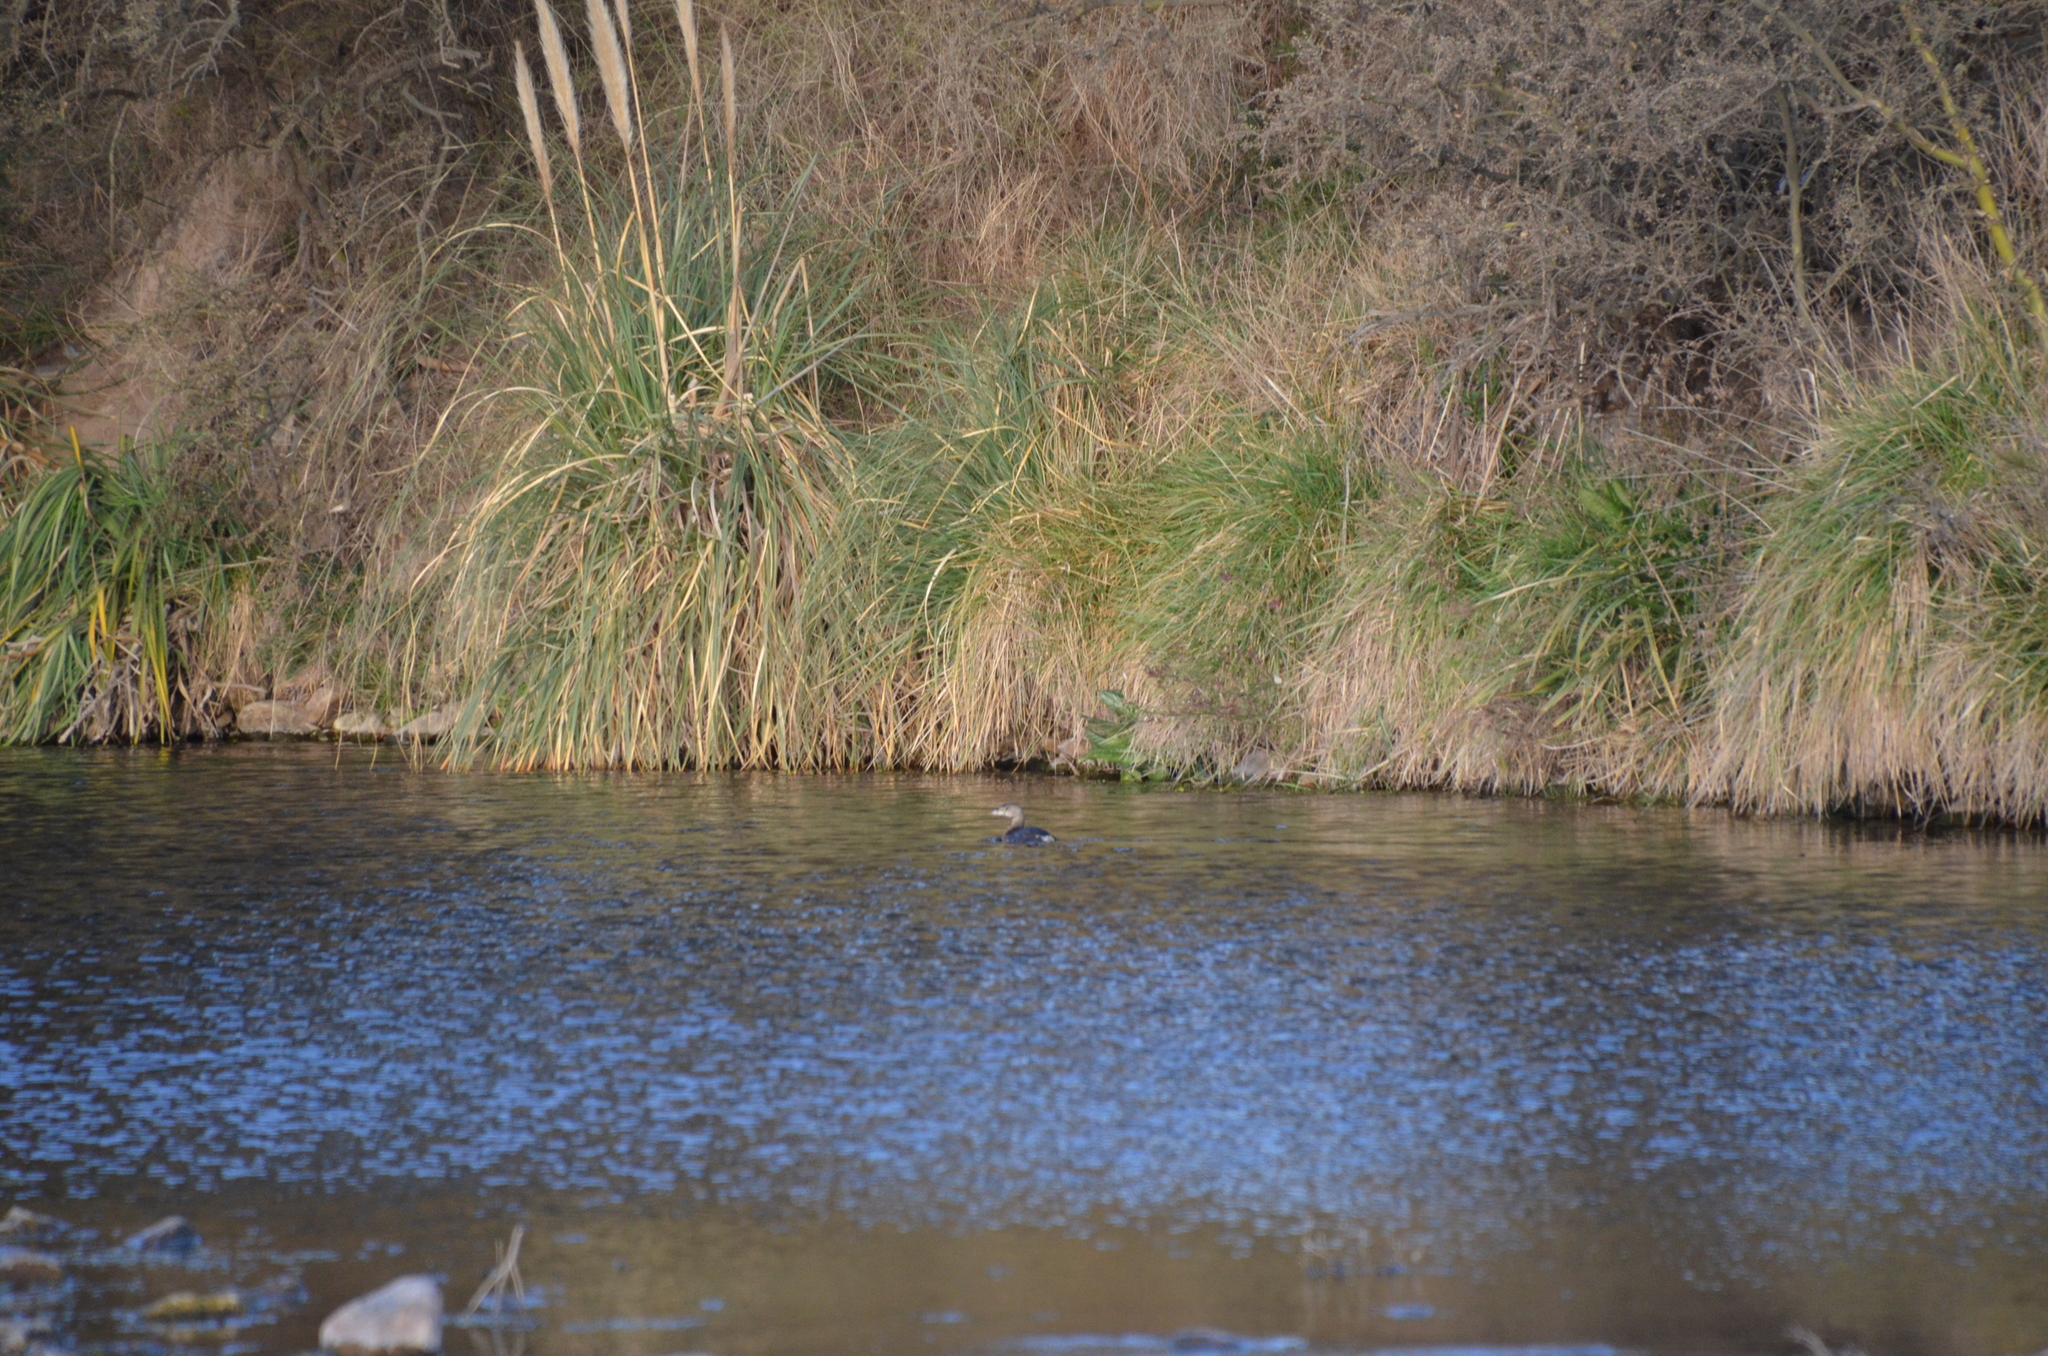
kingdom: Animalia
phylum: Chordata
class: Aves
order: Podicipediformes
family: Podicipedidae
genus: Podilymbus
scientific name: Podilymbus podiceps
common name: Pied-billed grebe
